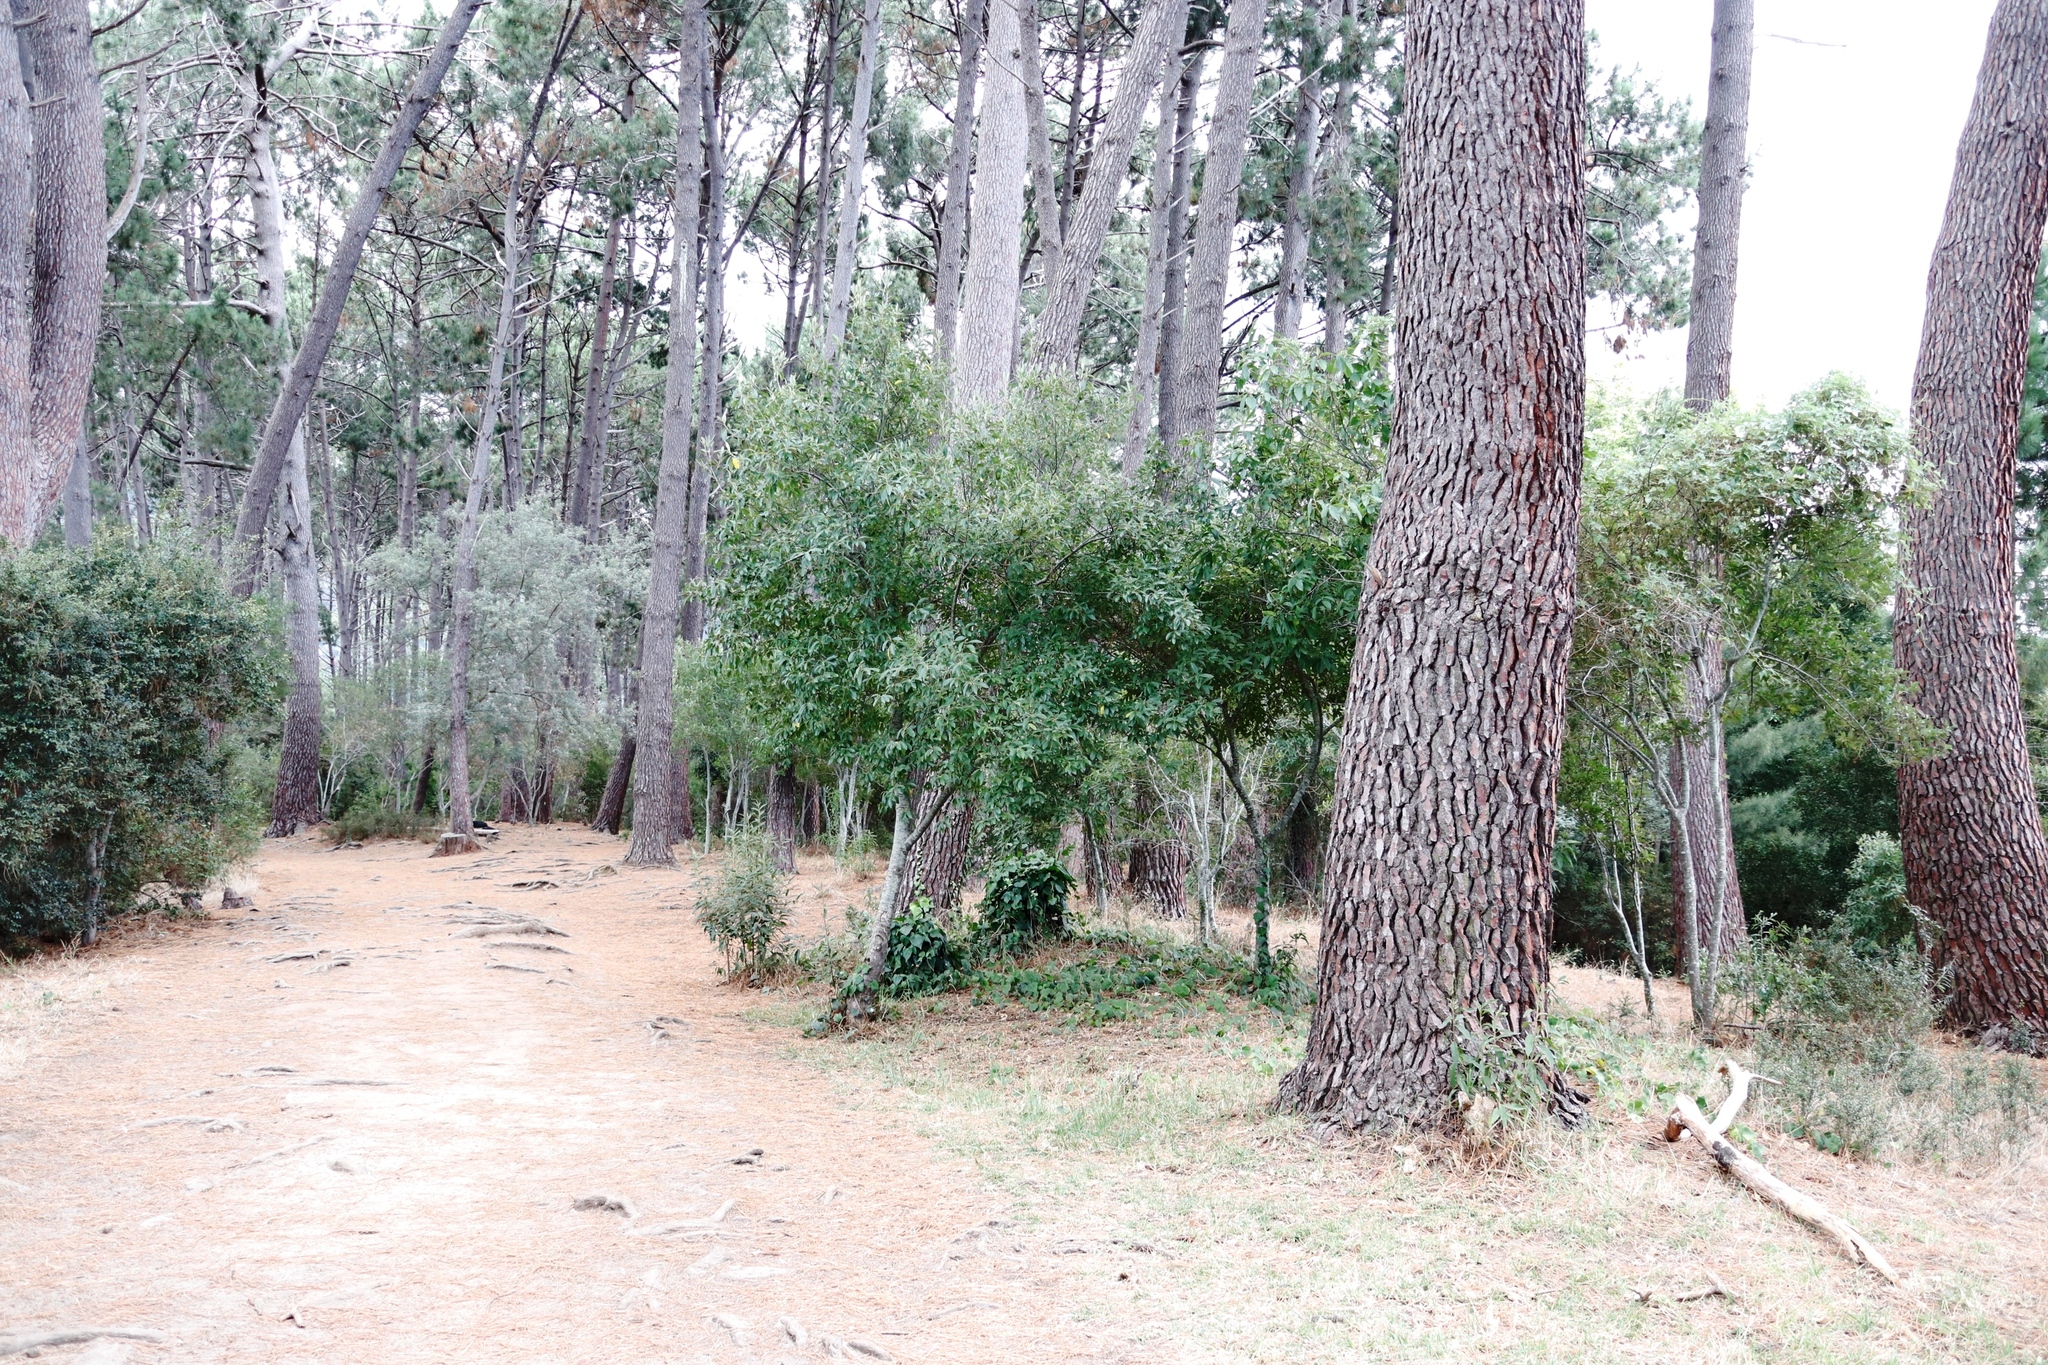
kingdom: Plantae
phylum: Tracheophyta
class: Magnoliopsida
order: Malpighiales
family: Achariaceae
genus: Kiggelaria
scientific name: Kiggelaria africana
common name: Wild peach
